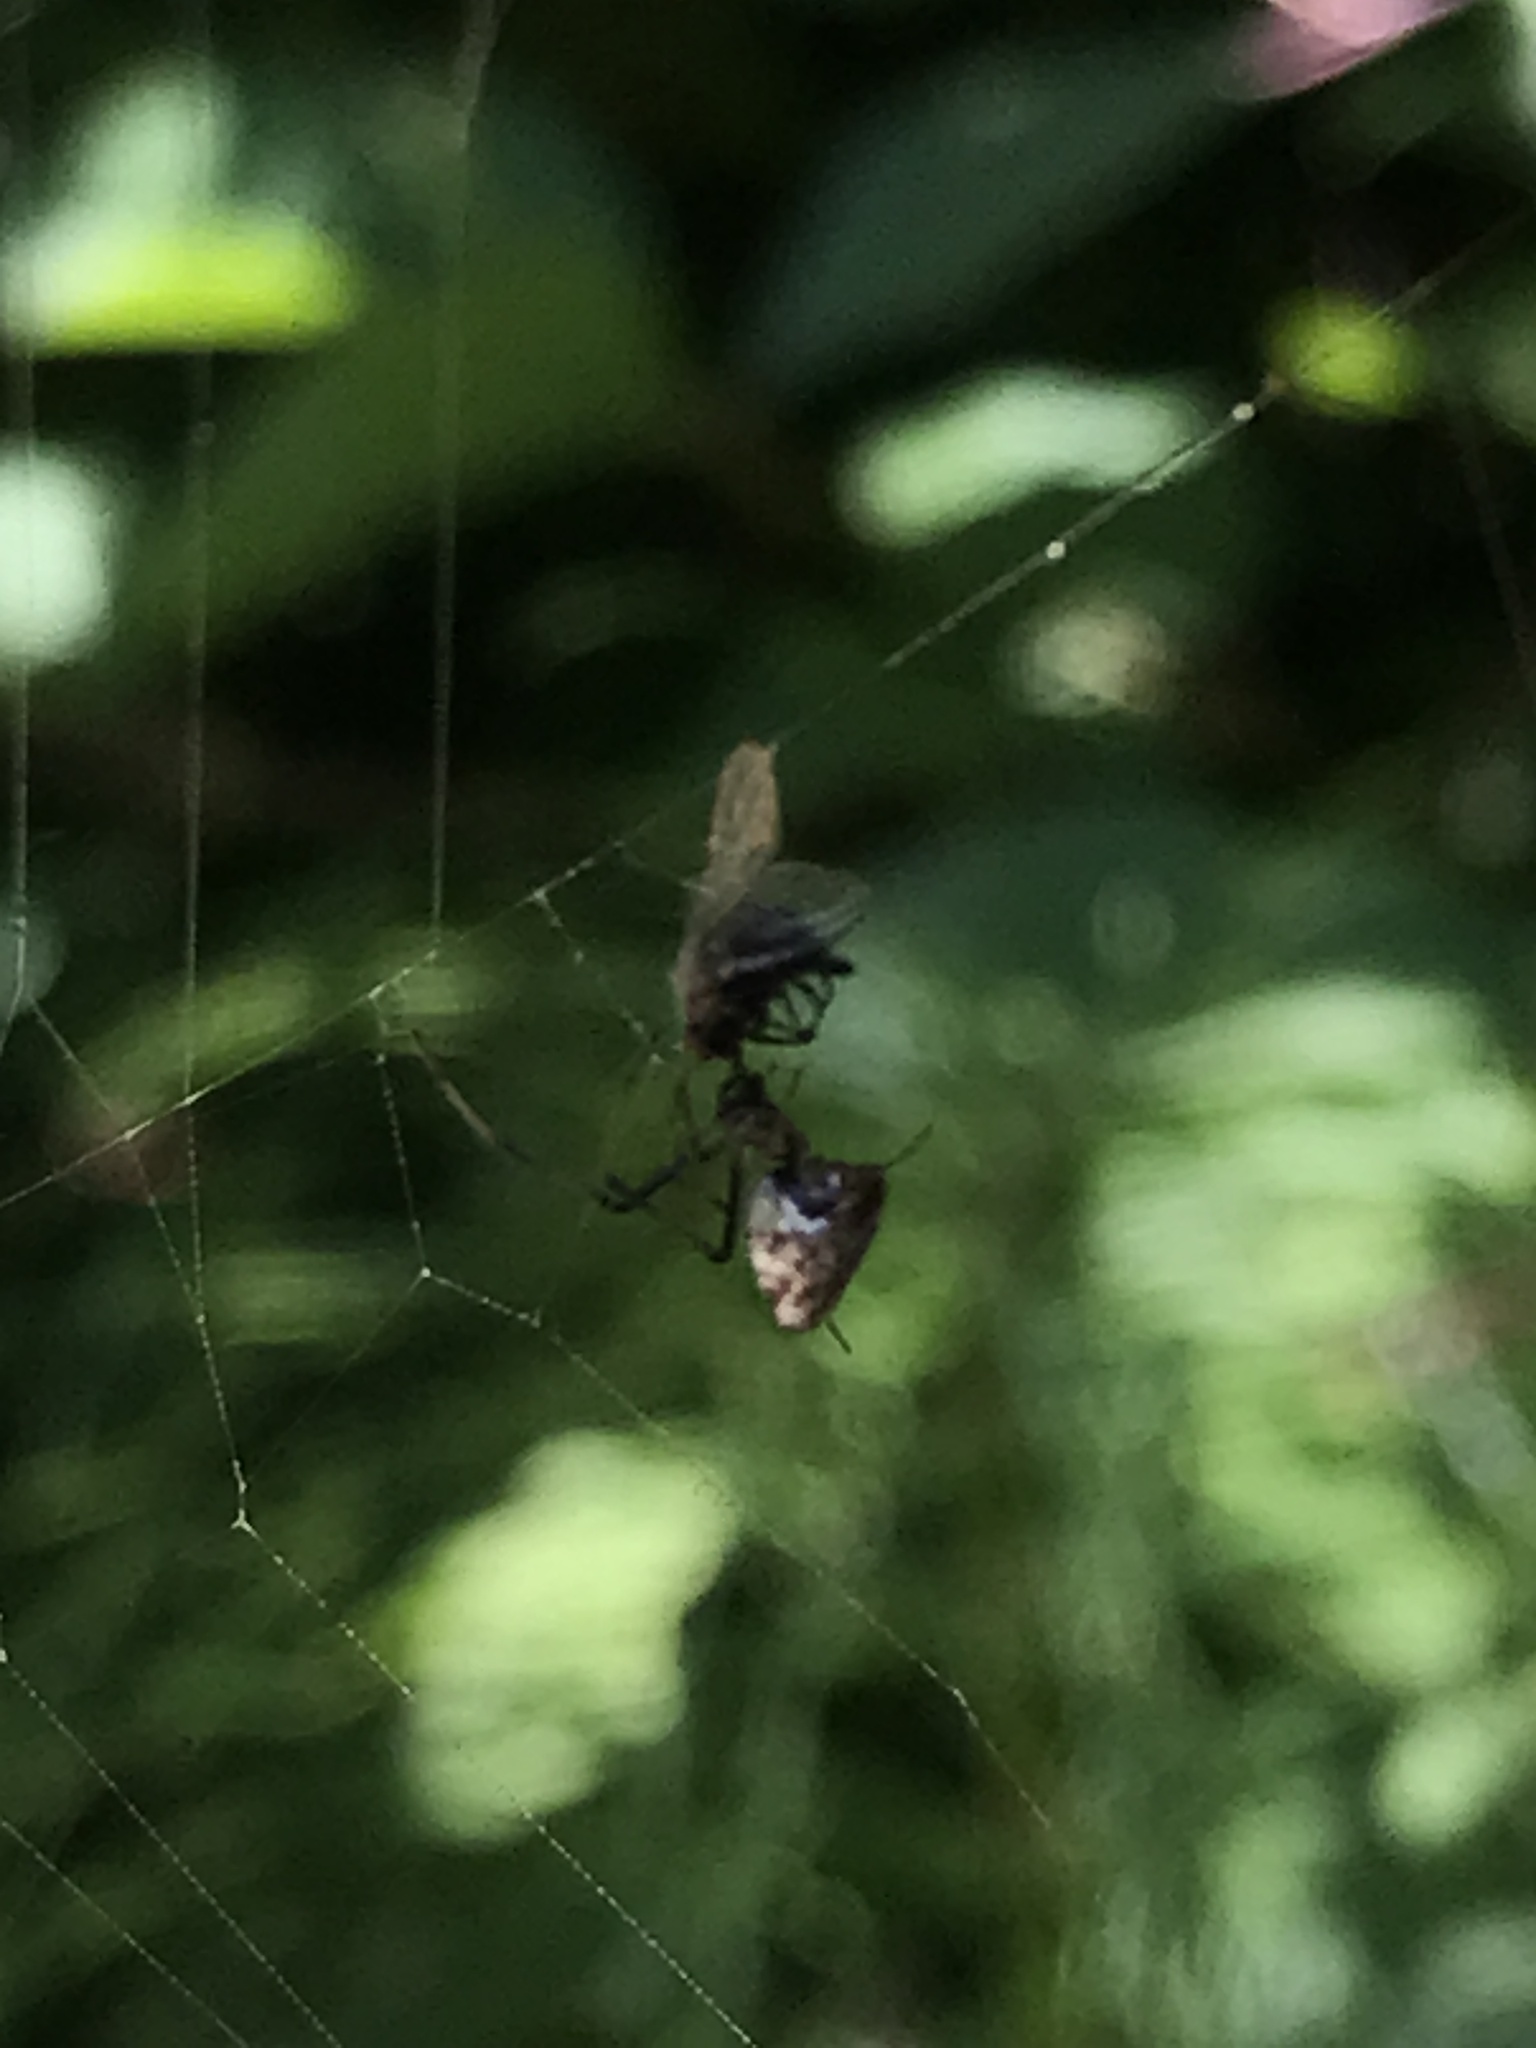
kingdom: Animalia
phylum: Arthropoda
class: Arachnida
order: Araneae
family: Theridiidae
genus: Argyrodes
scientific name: Argyrodes elevatus
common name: Cobweb spiders
